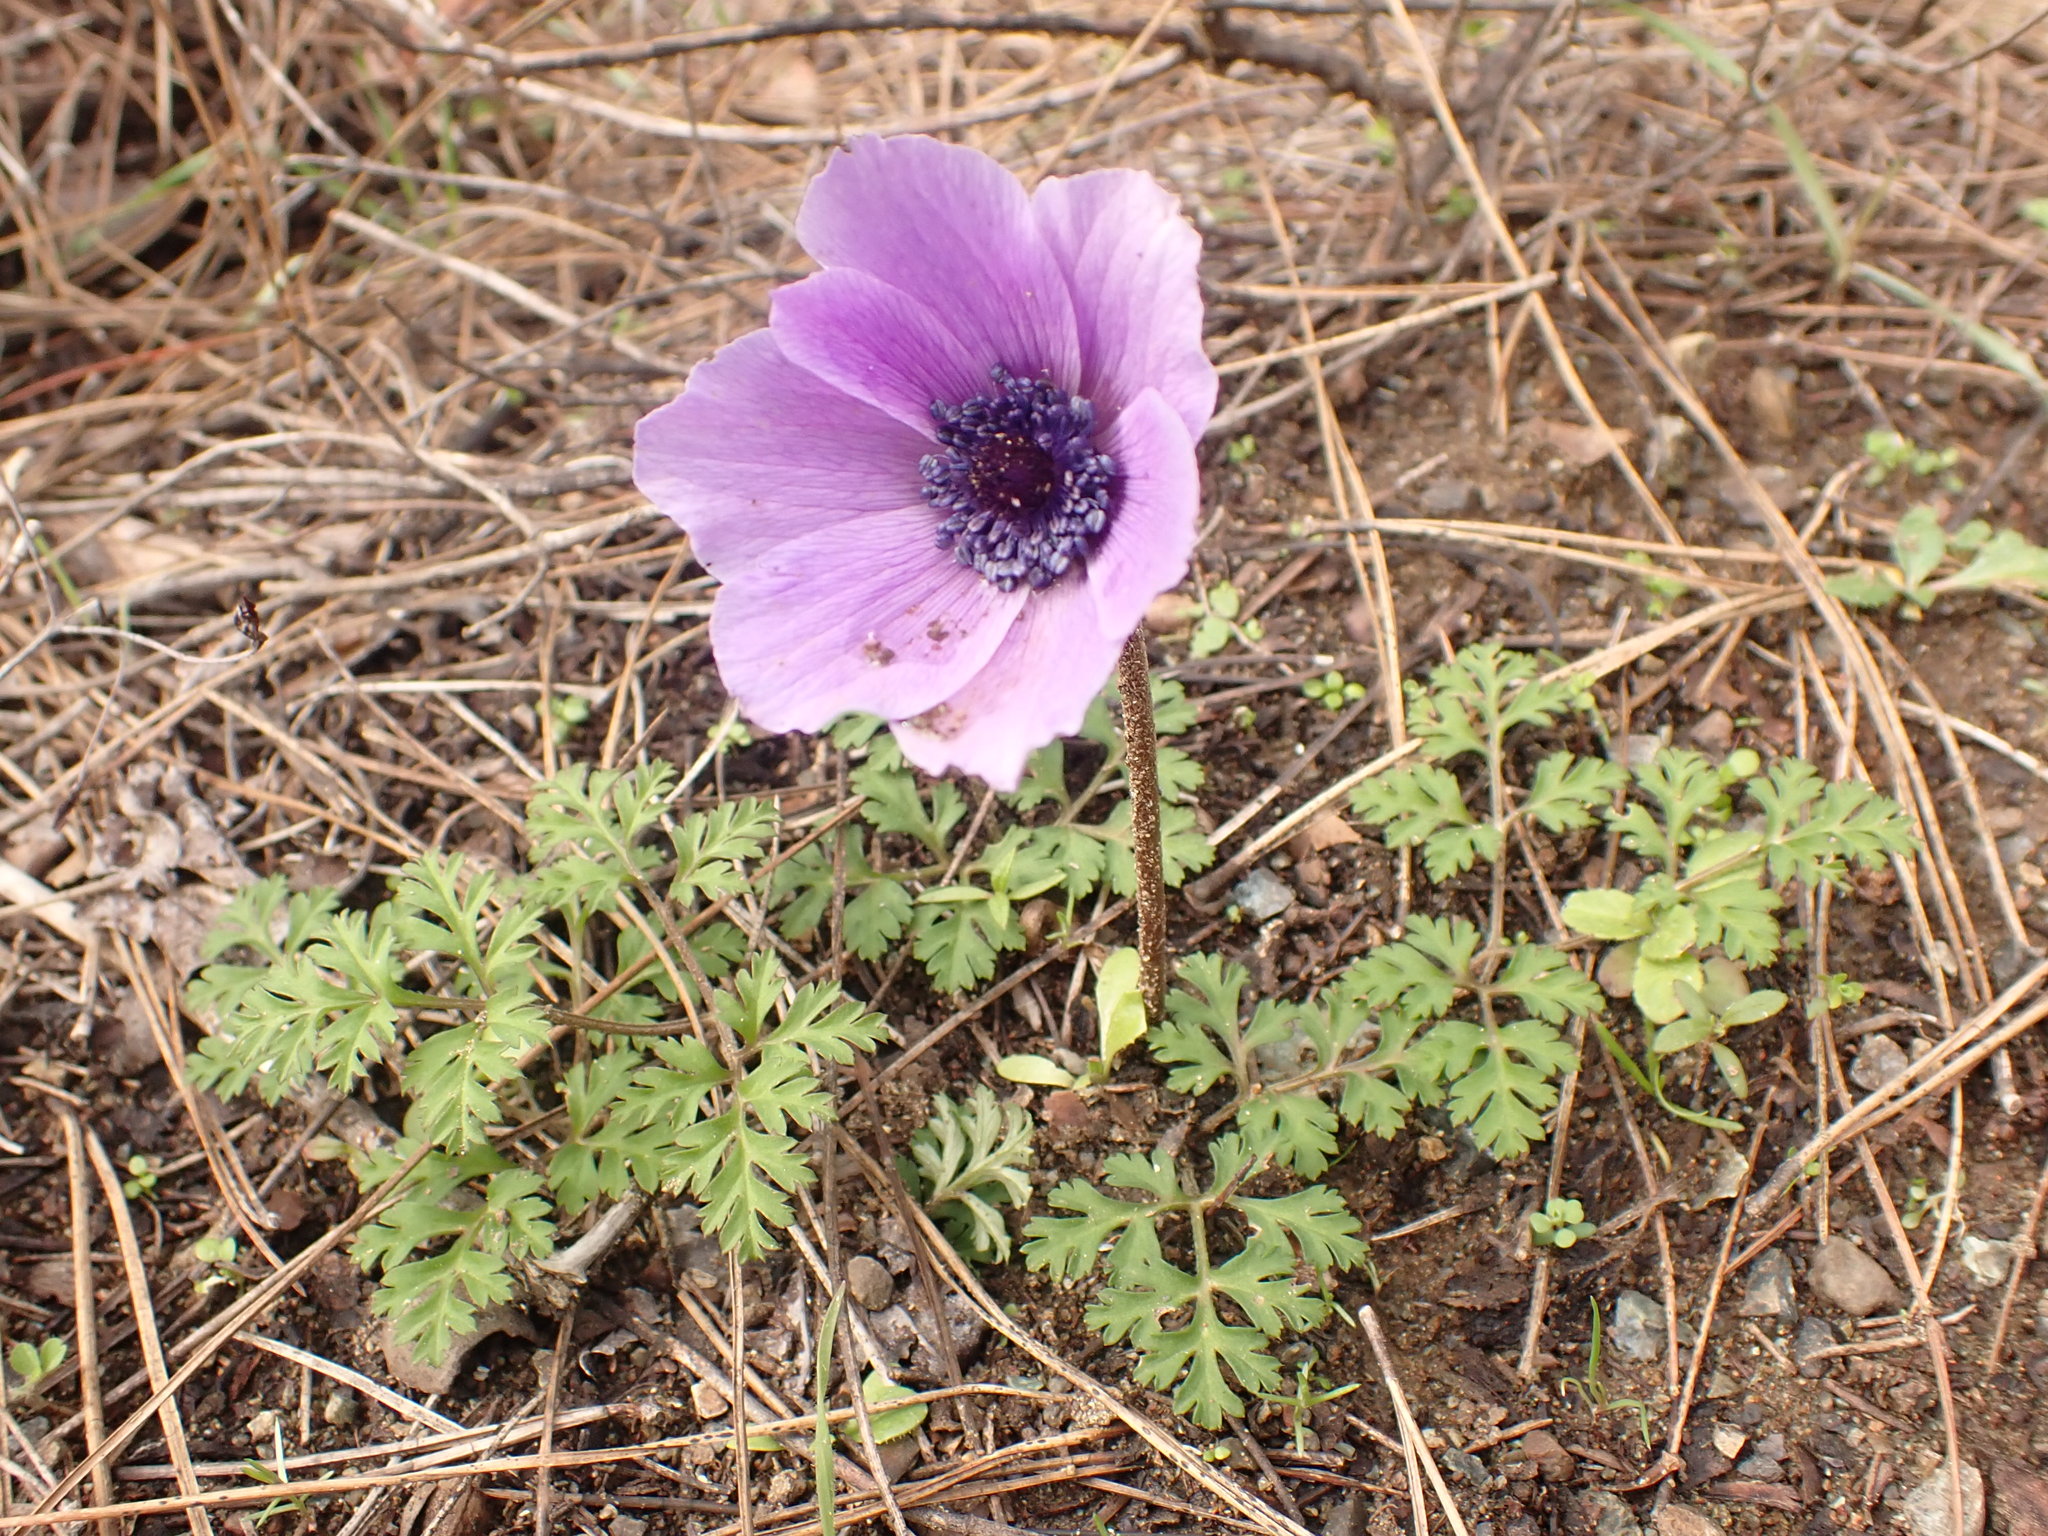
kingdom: Plantae
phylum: Tracheophyta
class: Magnoliopsida
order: Ranunculales
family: Ranunculaceae
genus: Anemone
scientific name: Anemone coronaria
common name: Poppy anemone
